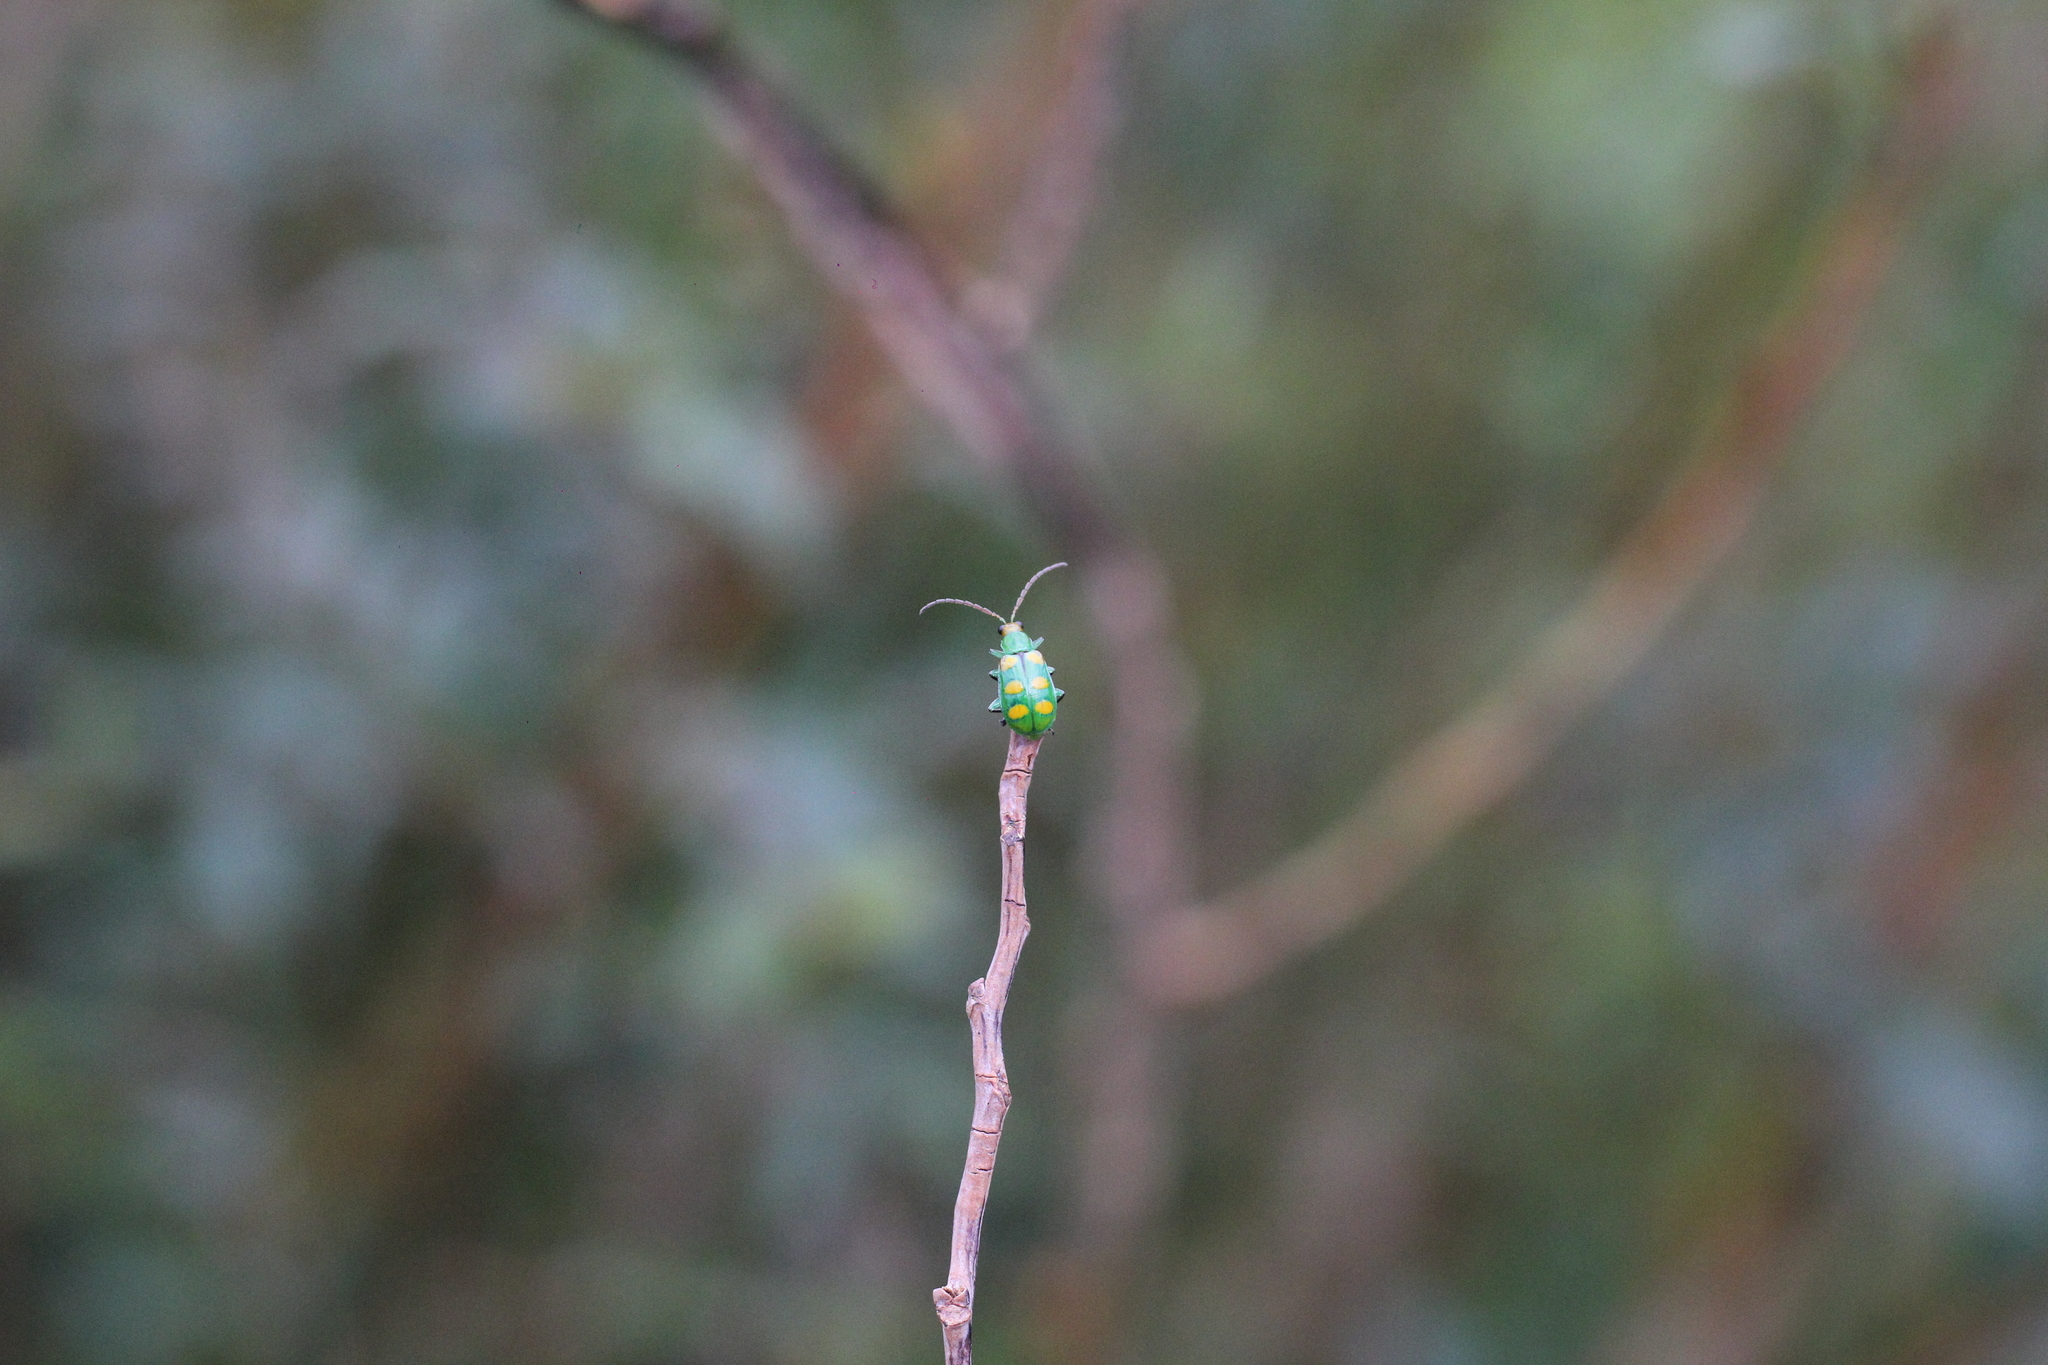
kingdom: Animalia
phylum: Arthropoda
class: Insecta
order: Coleoptera
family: Chrysomelidae
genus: Diabrotica
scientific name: Diabrotica speciosa
